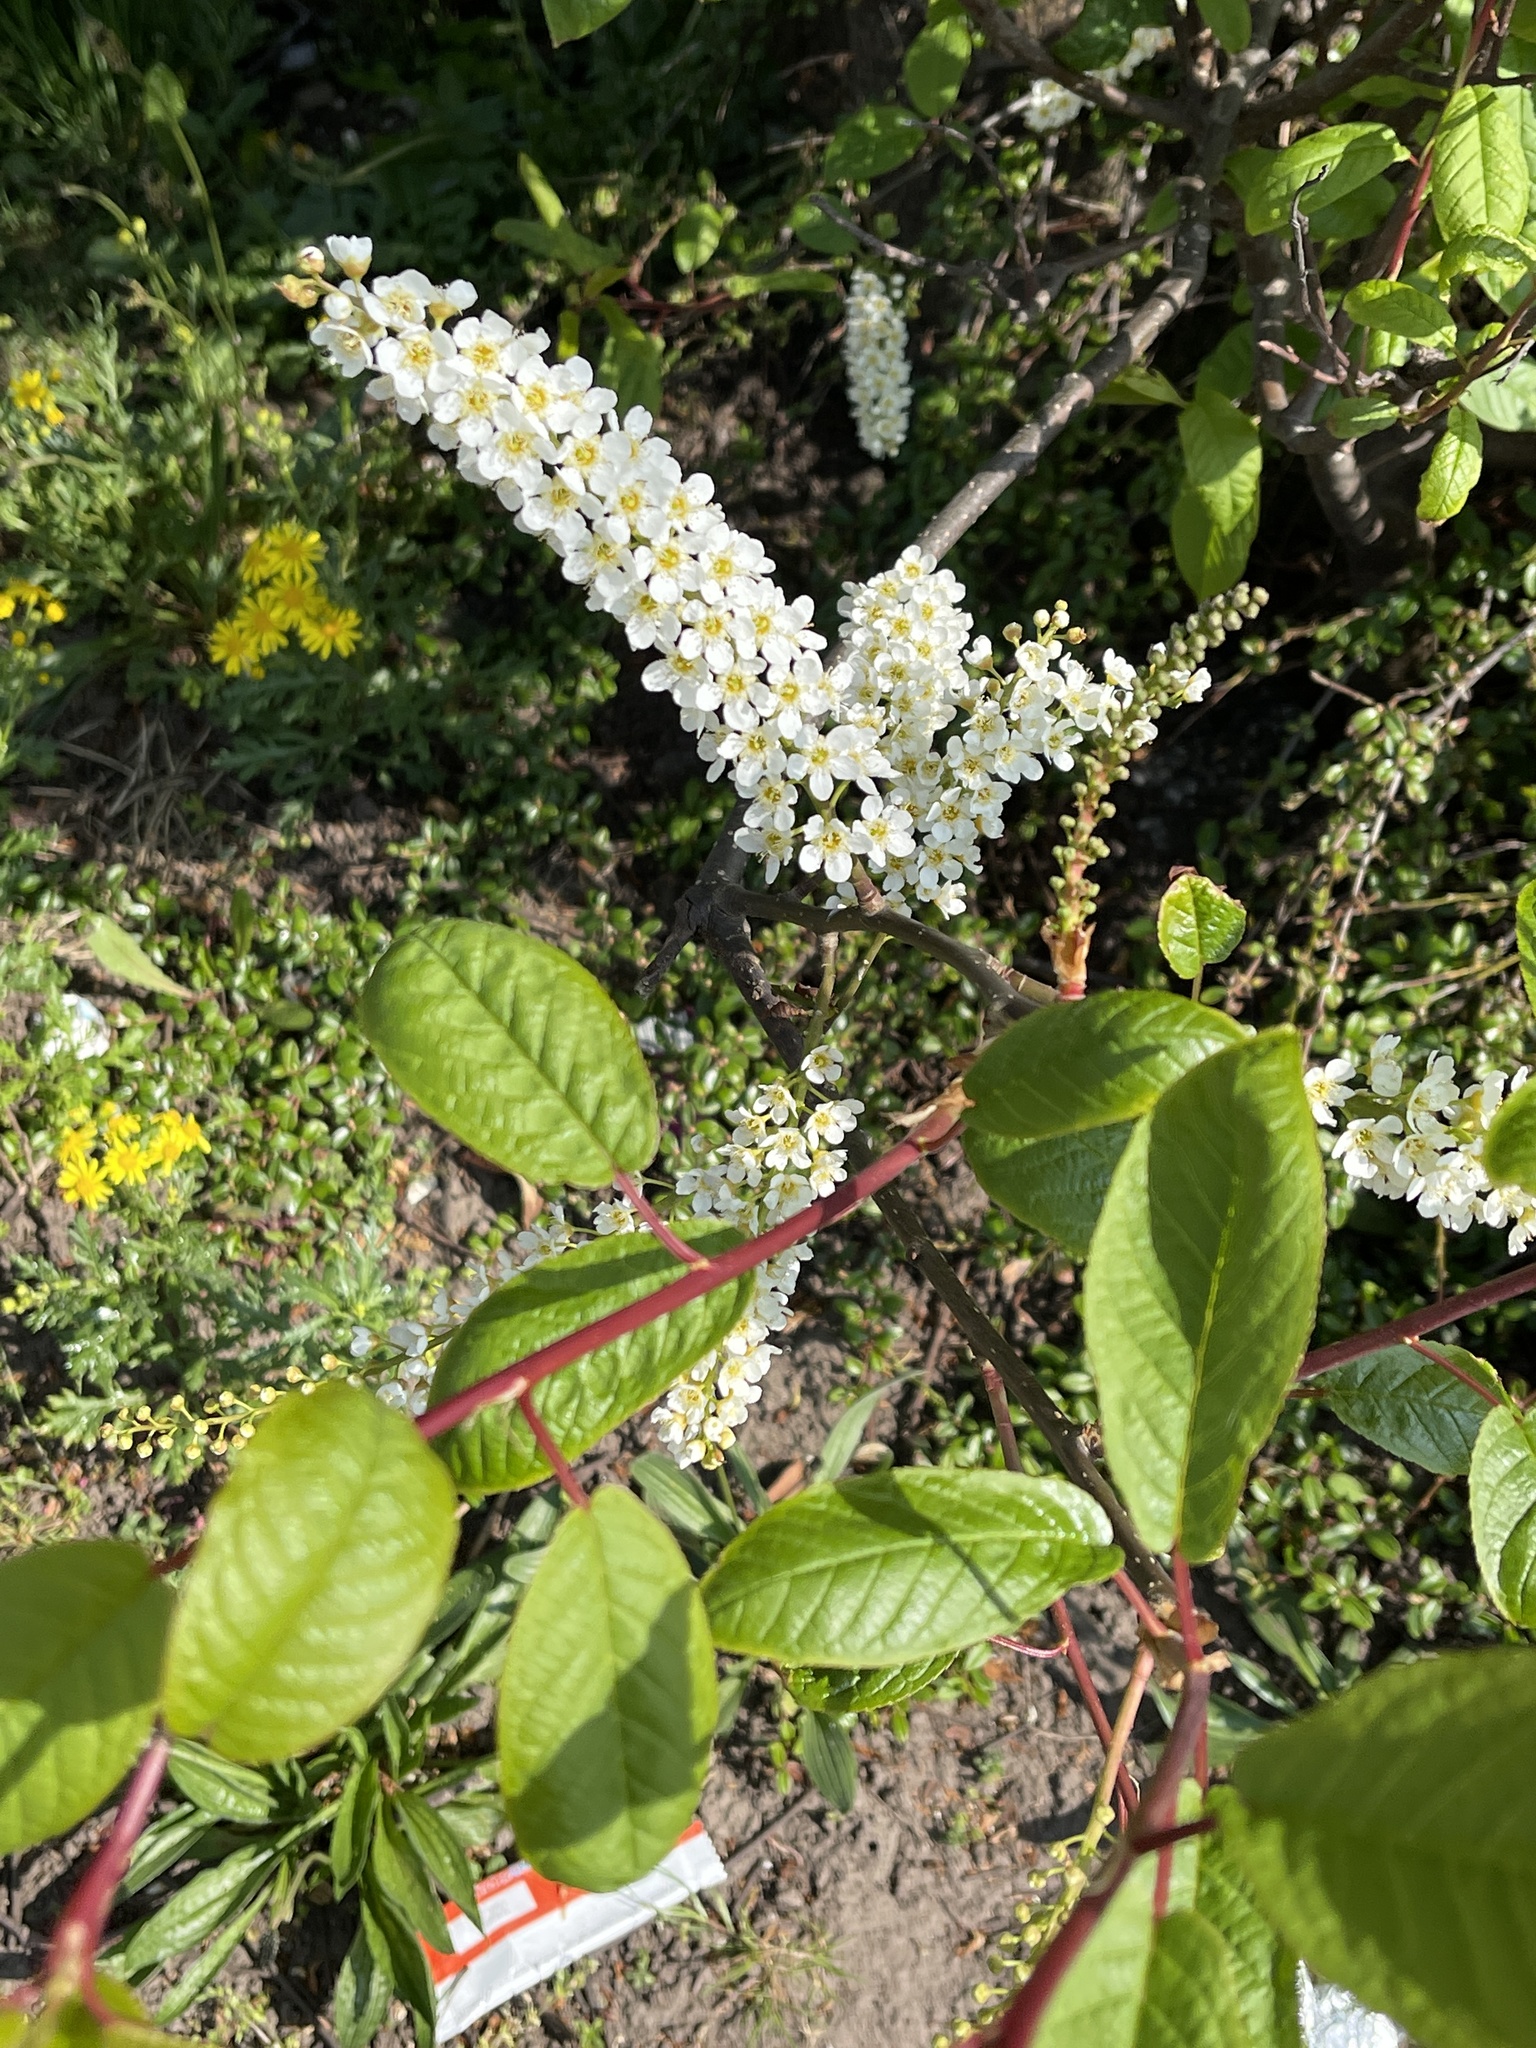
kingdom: Plantae
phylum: Tracheophyta
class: Magnoliopsida
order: Rosales
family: Rosaceae
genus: Prunus
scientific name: Prunus padus
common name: Bird cherry
